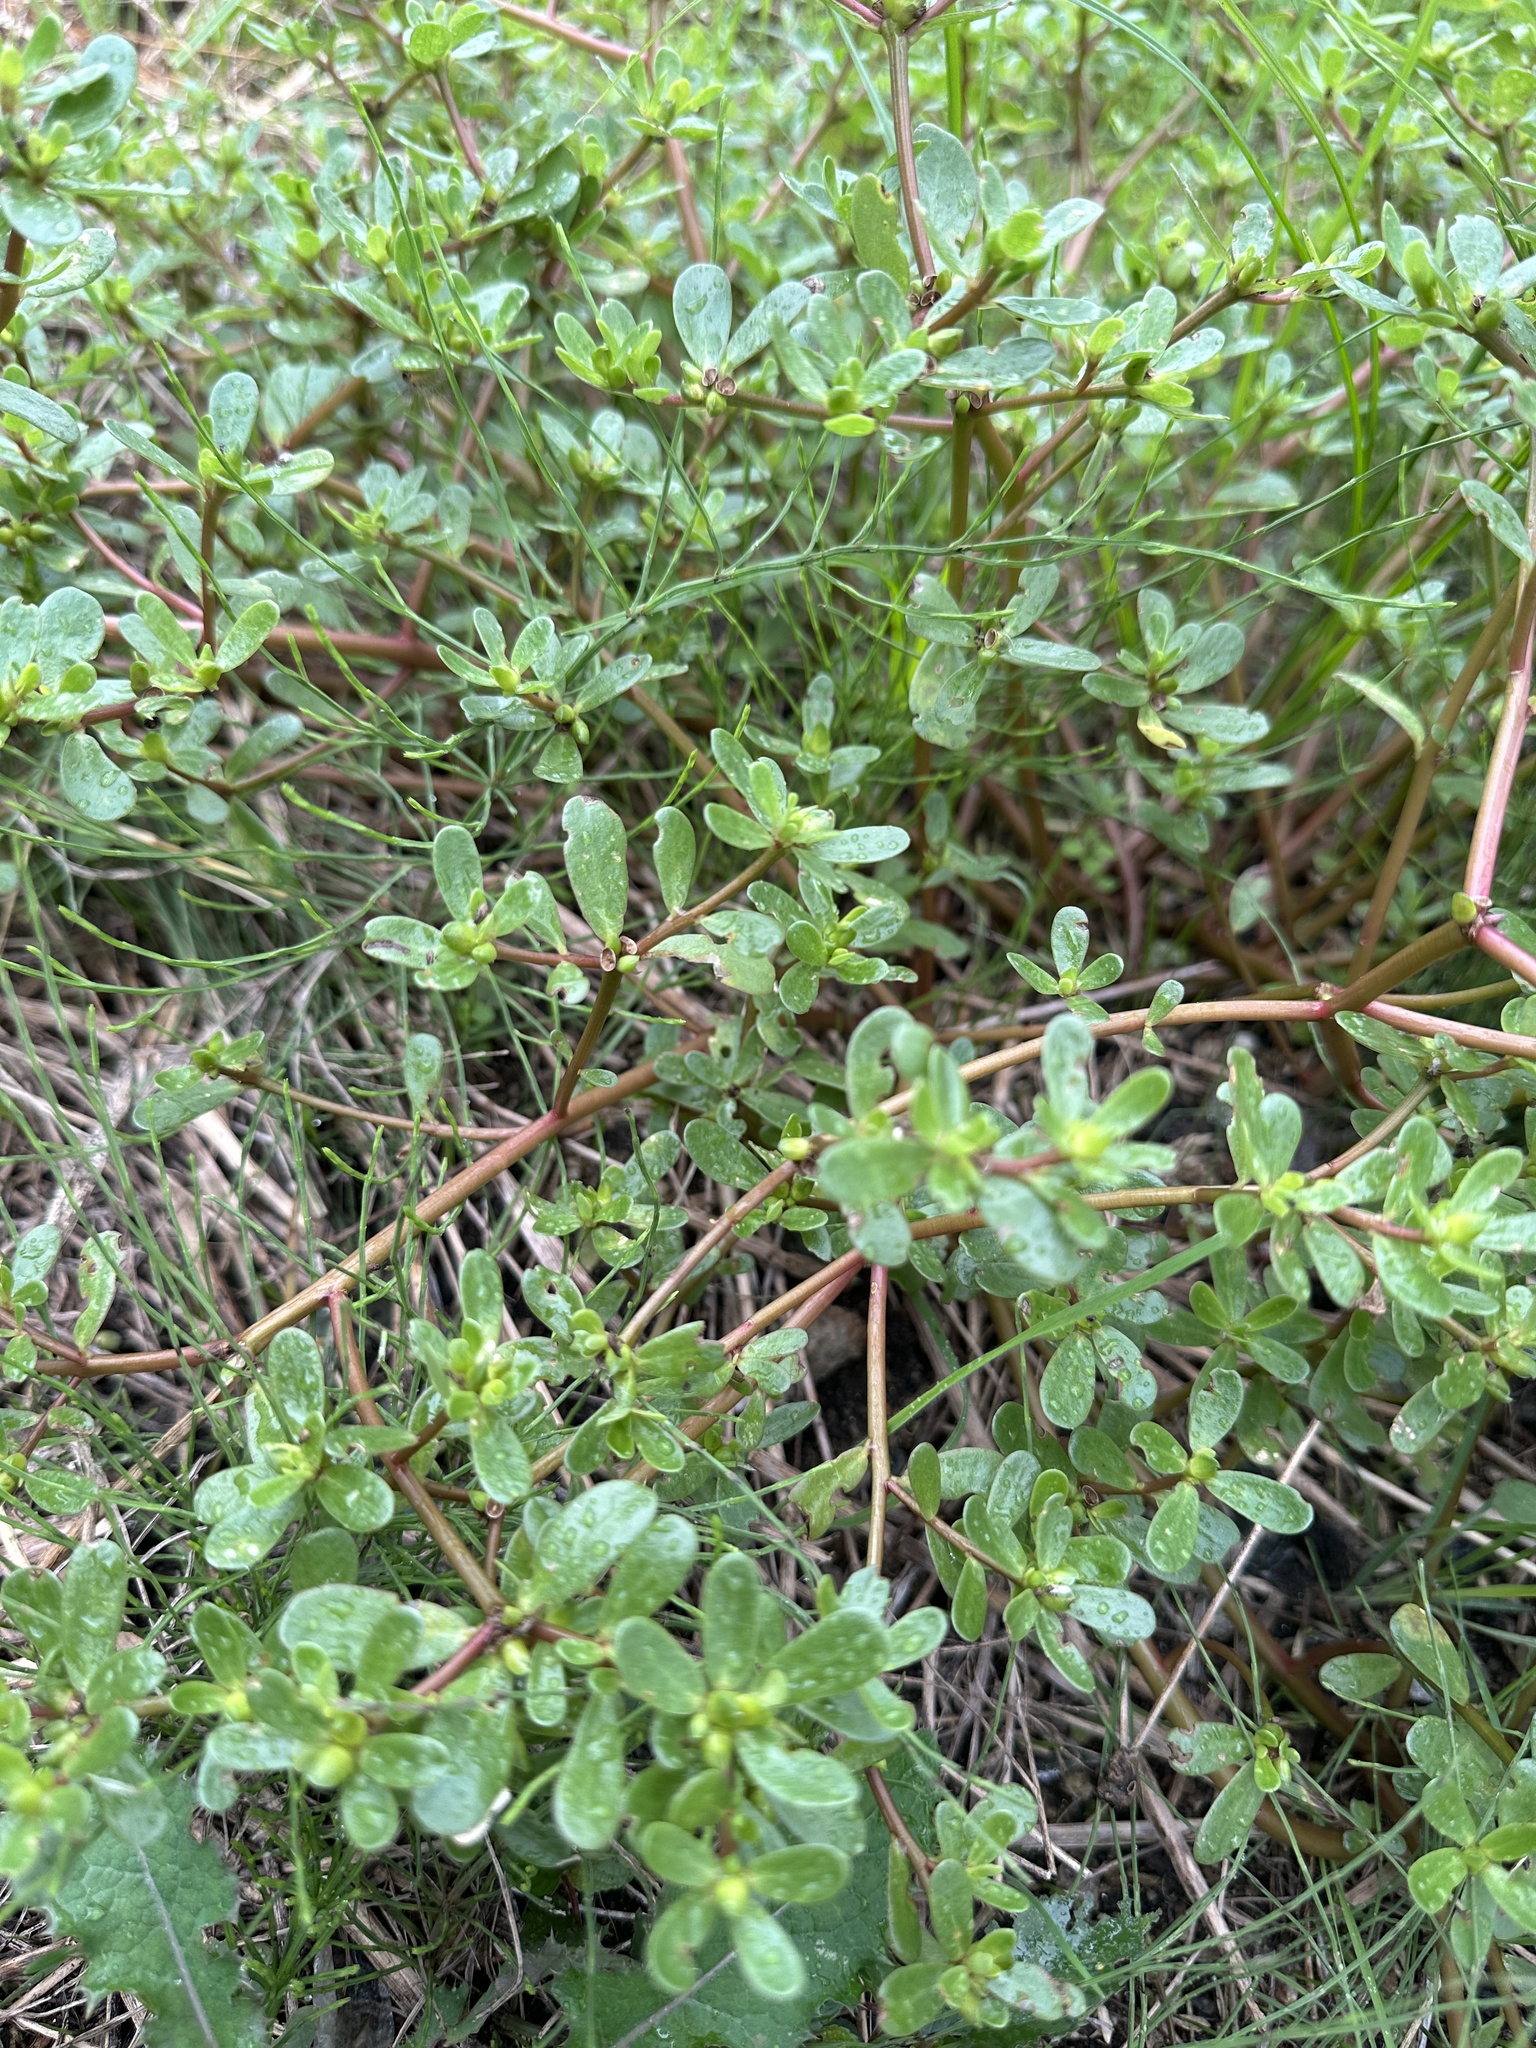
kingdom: Plantae
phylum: Tracheophyta
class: Magnoliopsida
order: Caryophyllales
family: Portulacaceae
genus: Portulaca
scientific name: Portulaca oleracea
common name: Common purslane
